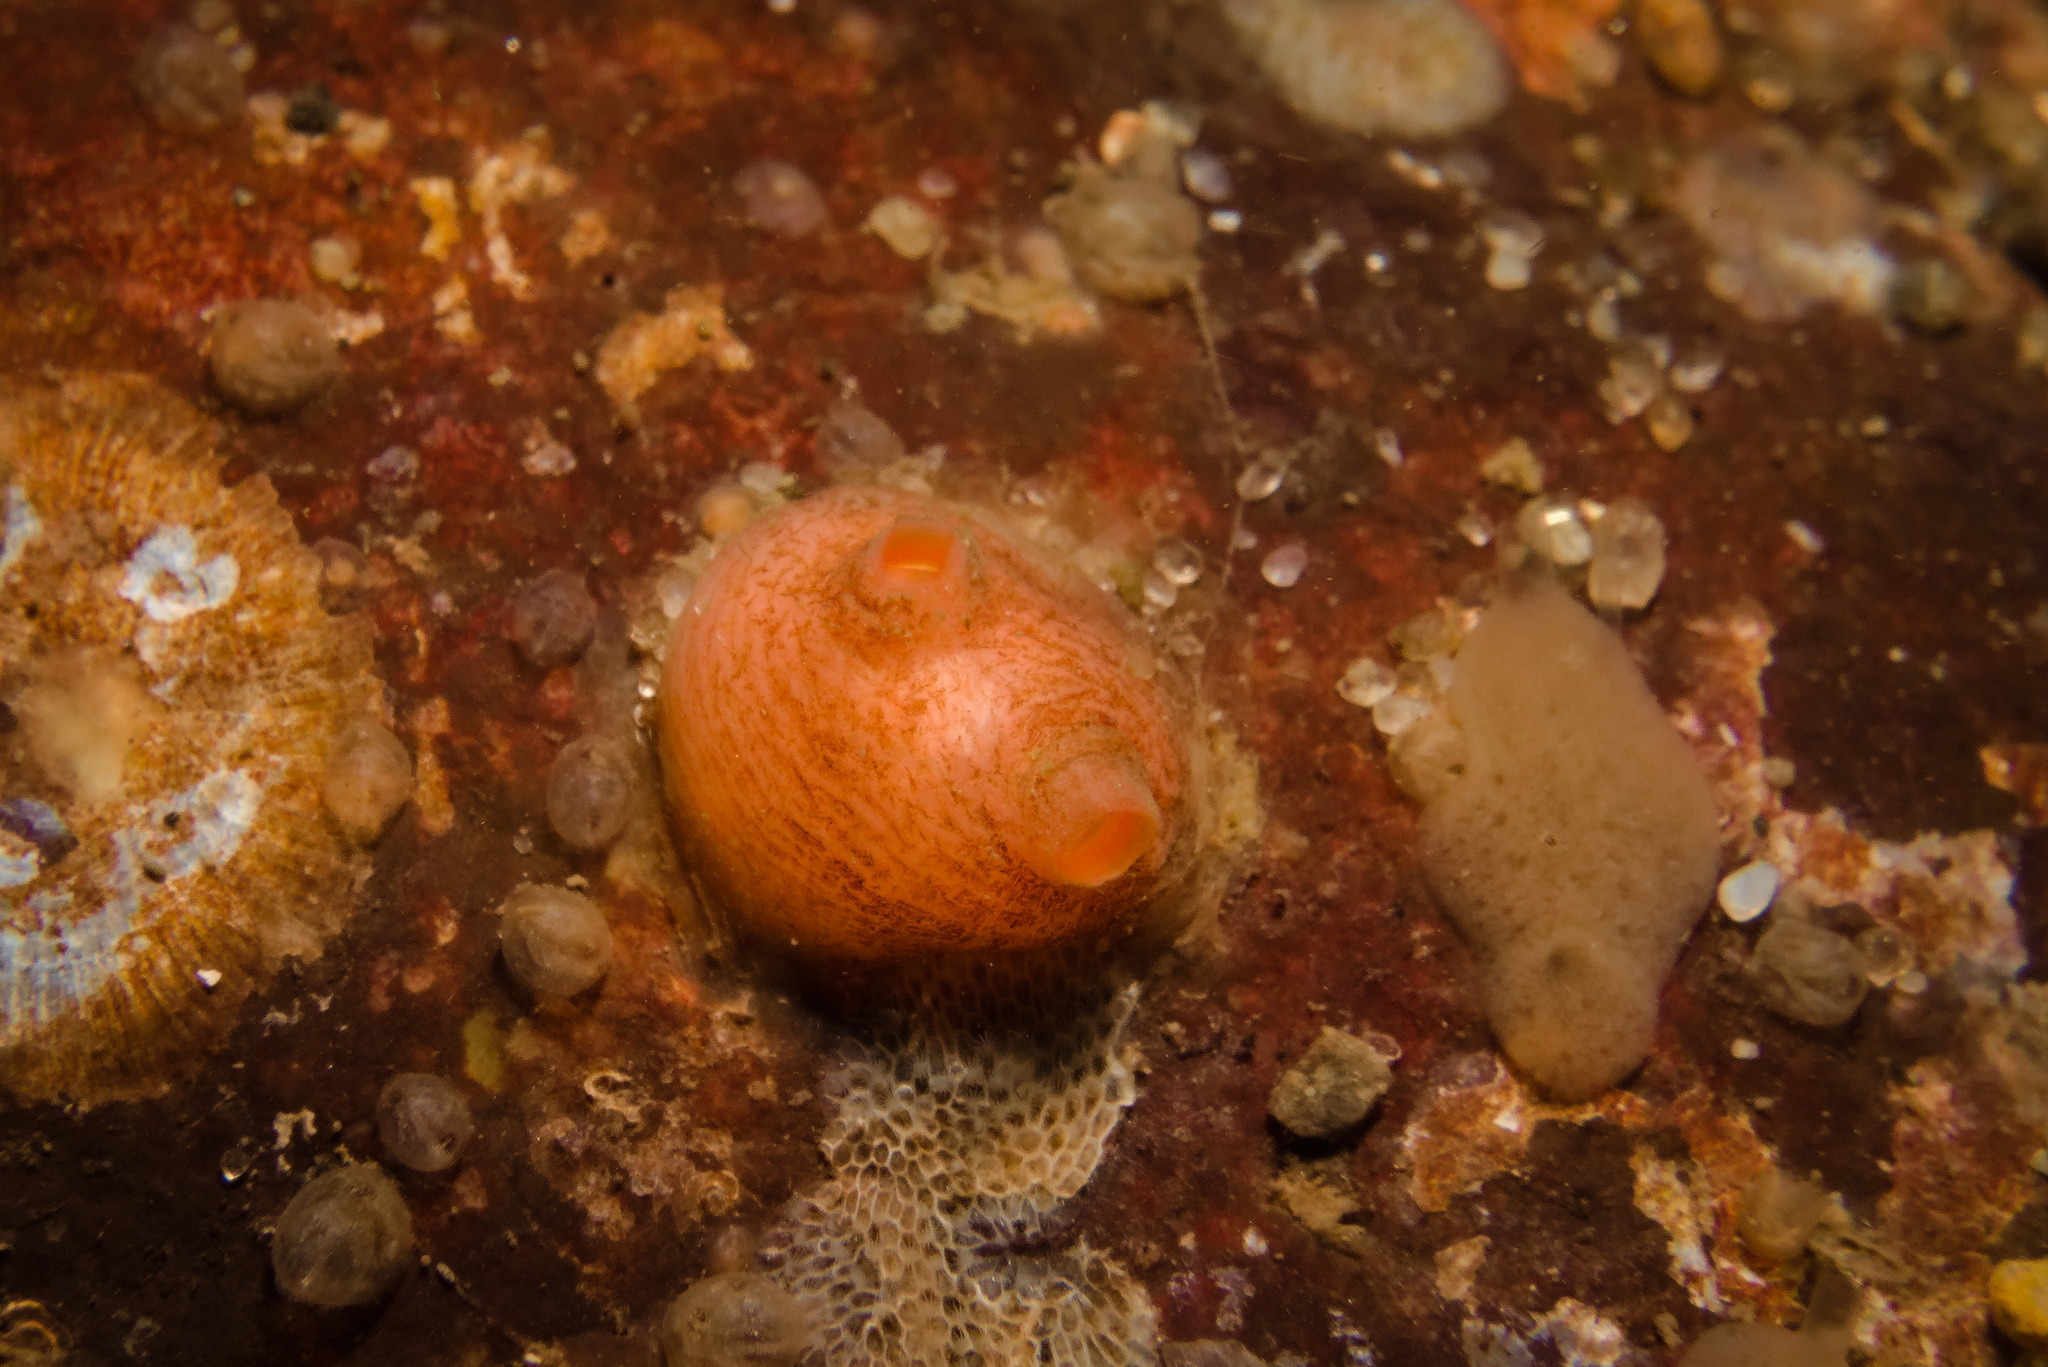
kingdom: Animalia
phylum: Chordata
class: Ascidiacea
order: Stolidobranchia
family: Styelidae
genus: Dendrodoa
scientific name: Dendrodoa grossularia
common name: Baked bean ascidian
